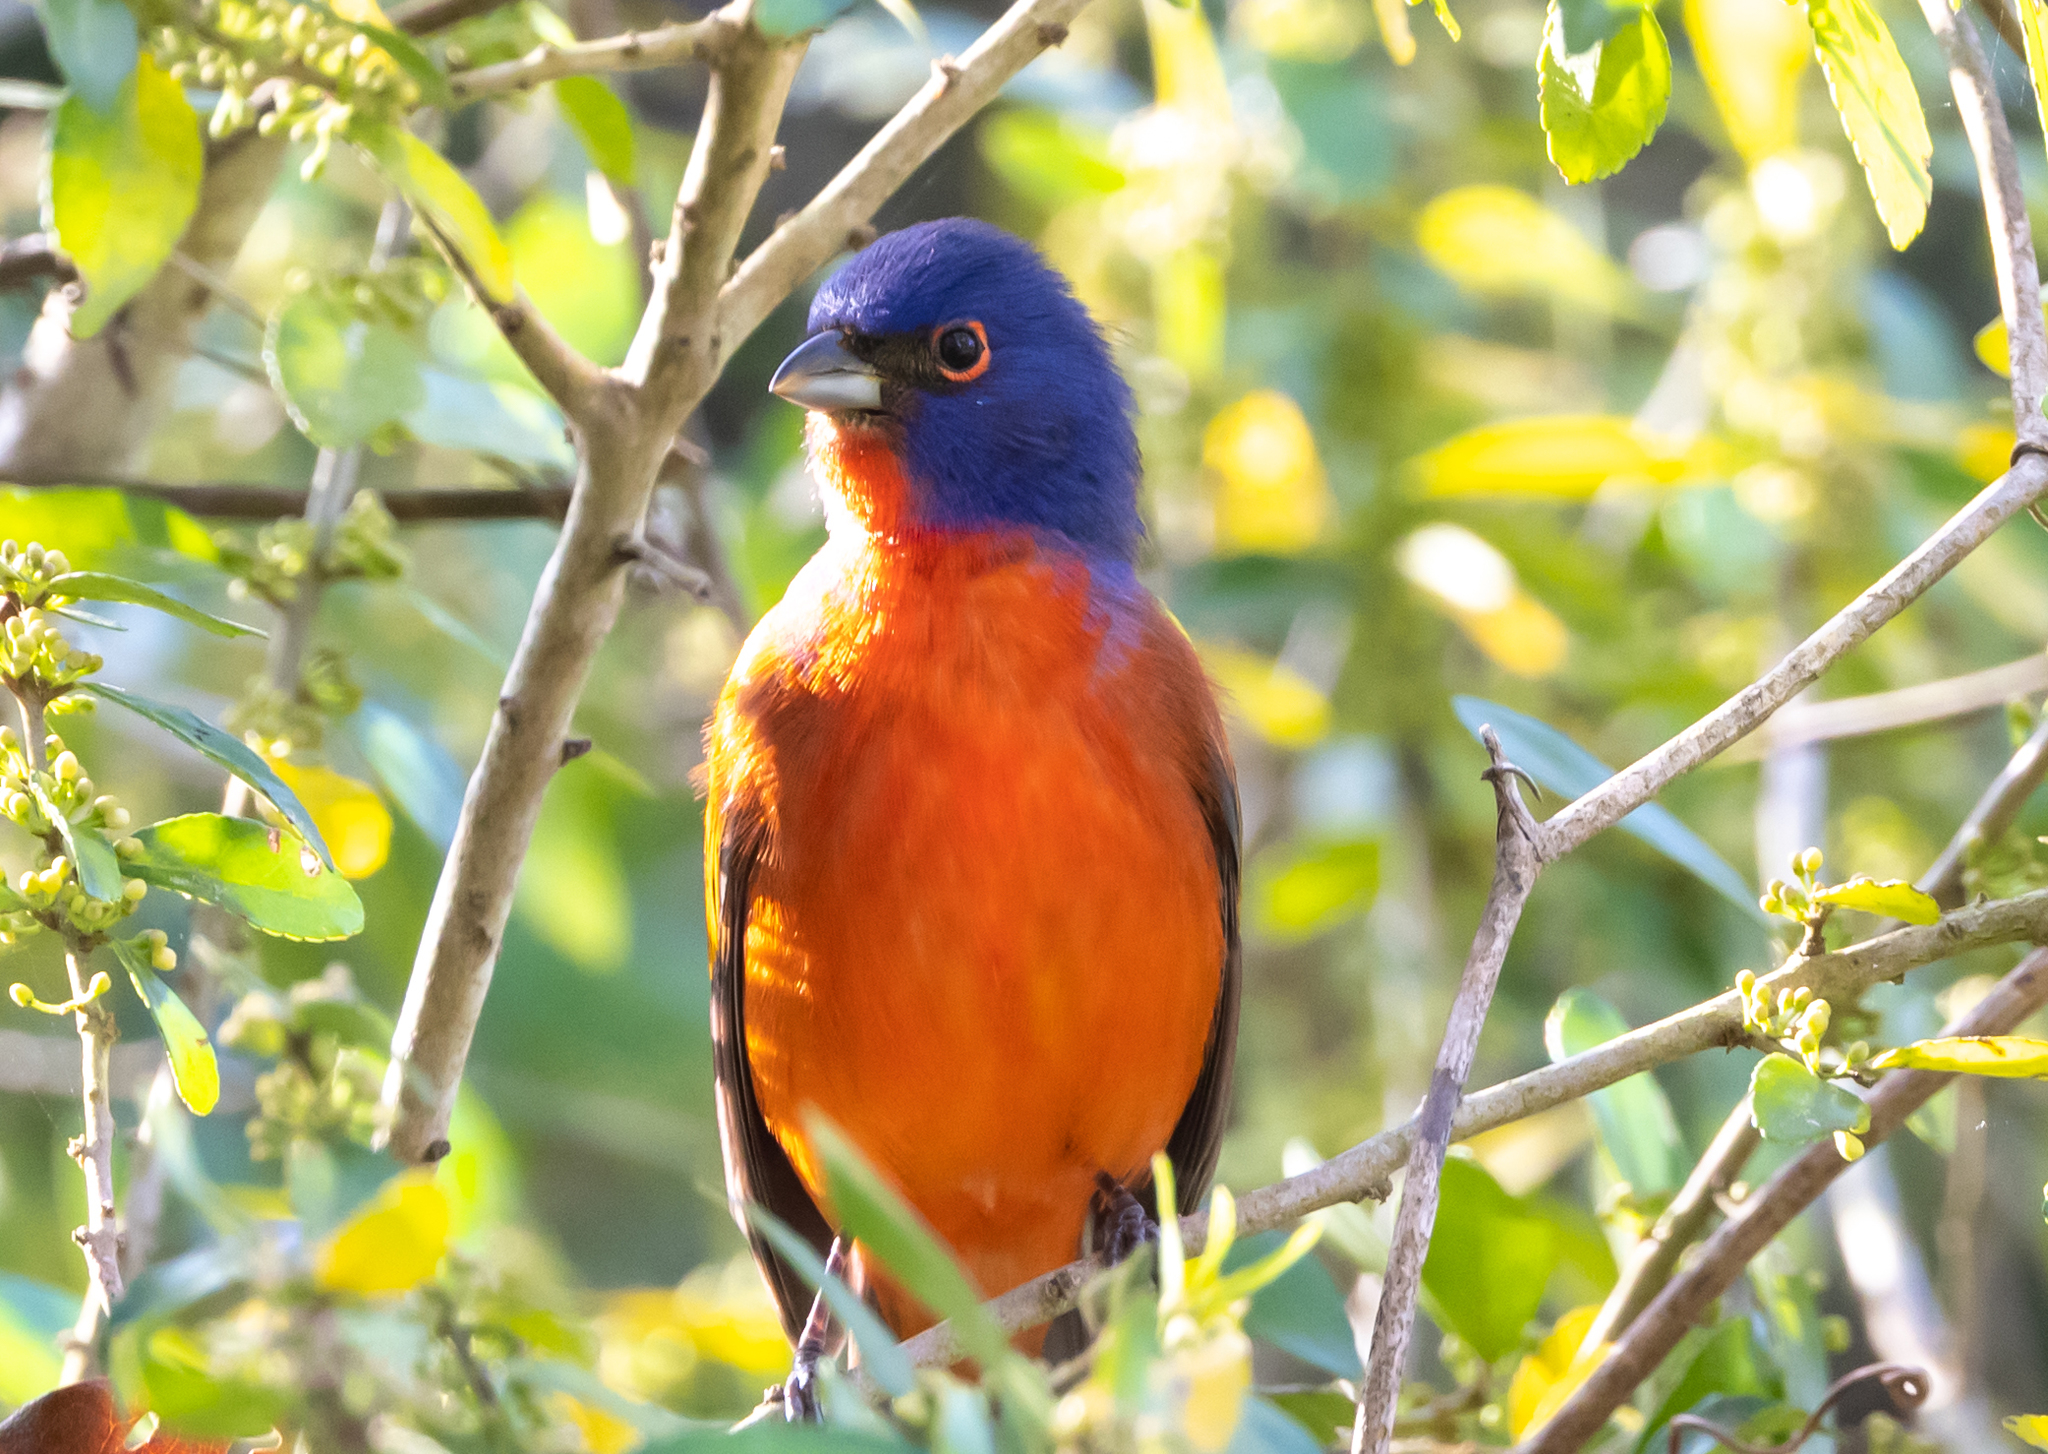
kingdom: Animalia
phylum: Chordata
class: Aves
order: Passeriformes
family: Cardinalidae
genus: Passerina
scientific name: Passerina ciris
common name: Painted bunting
